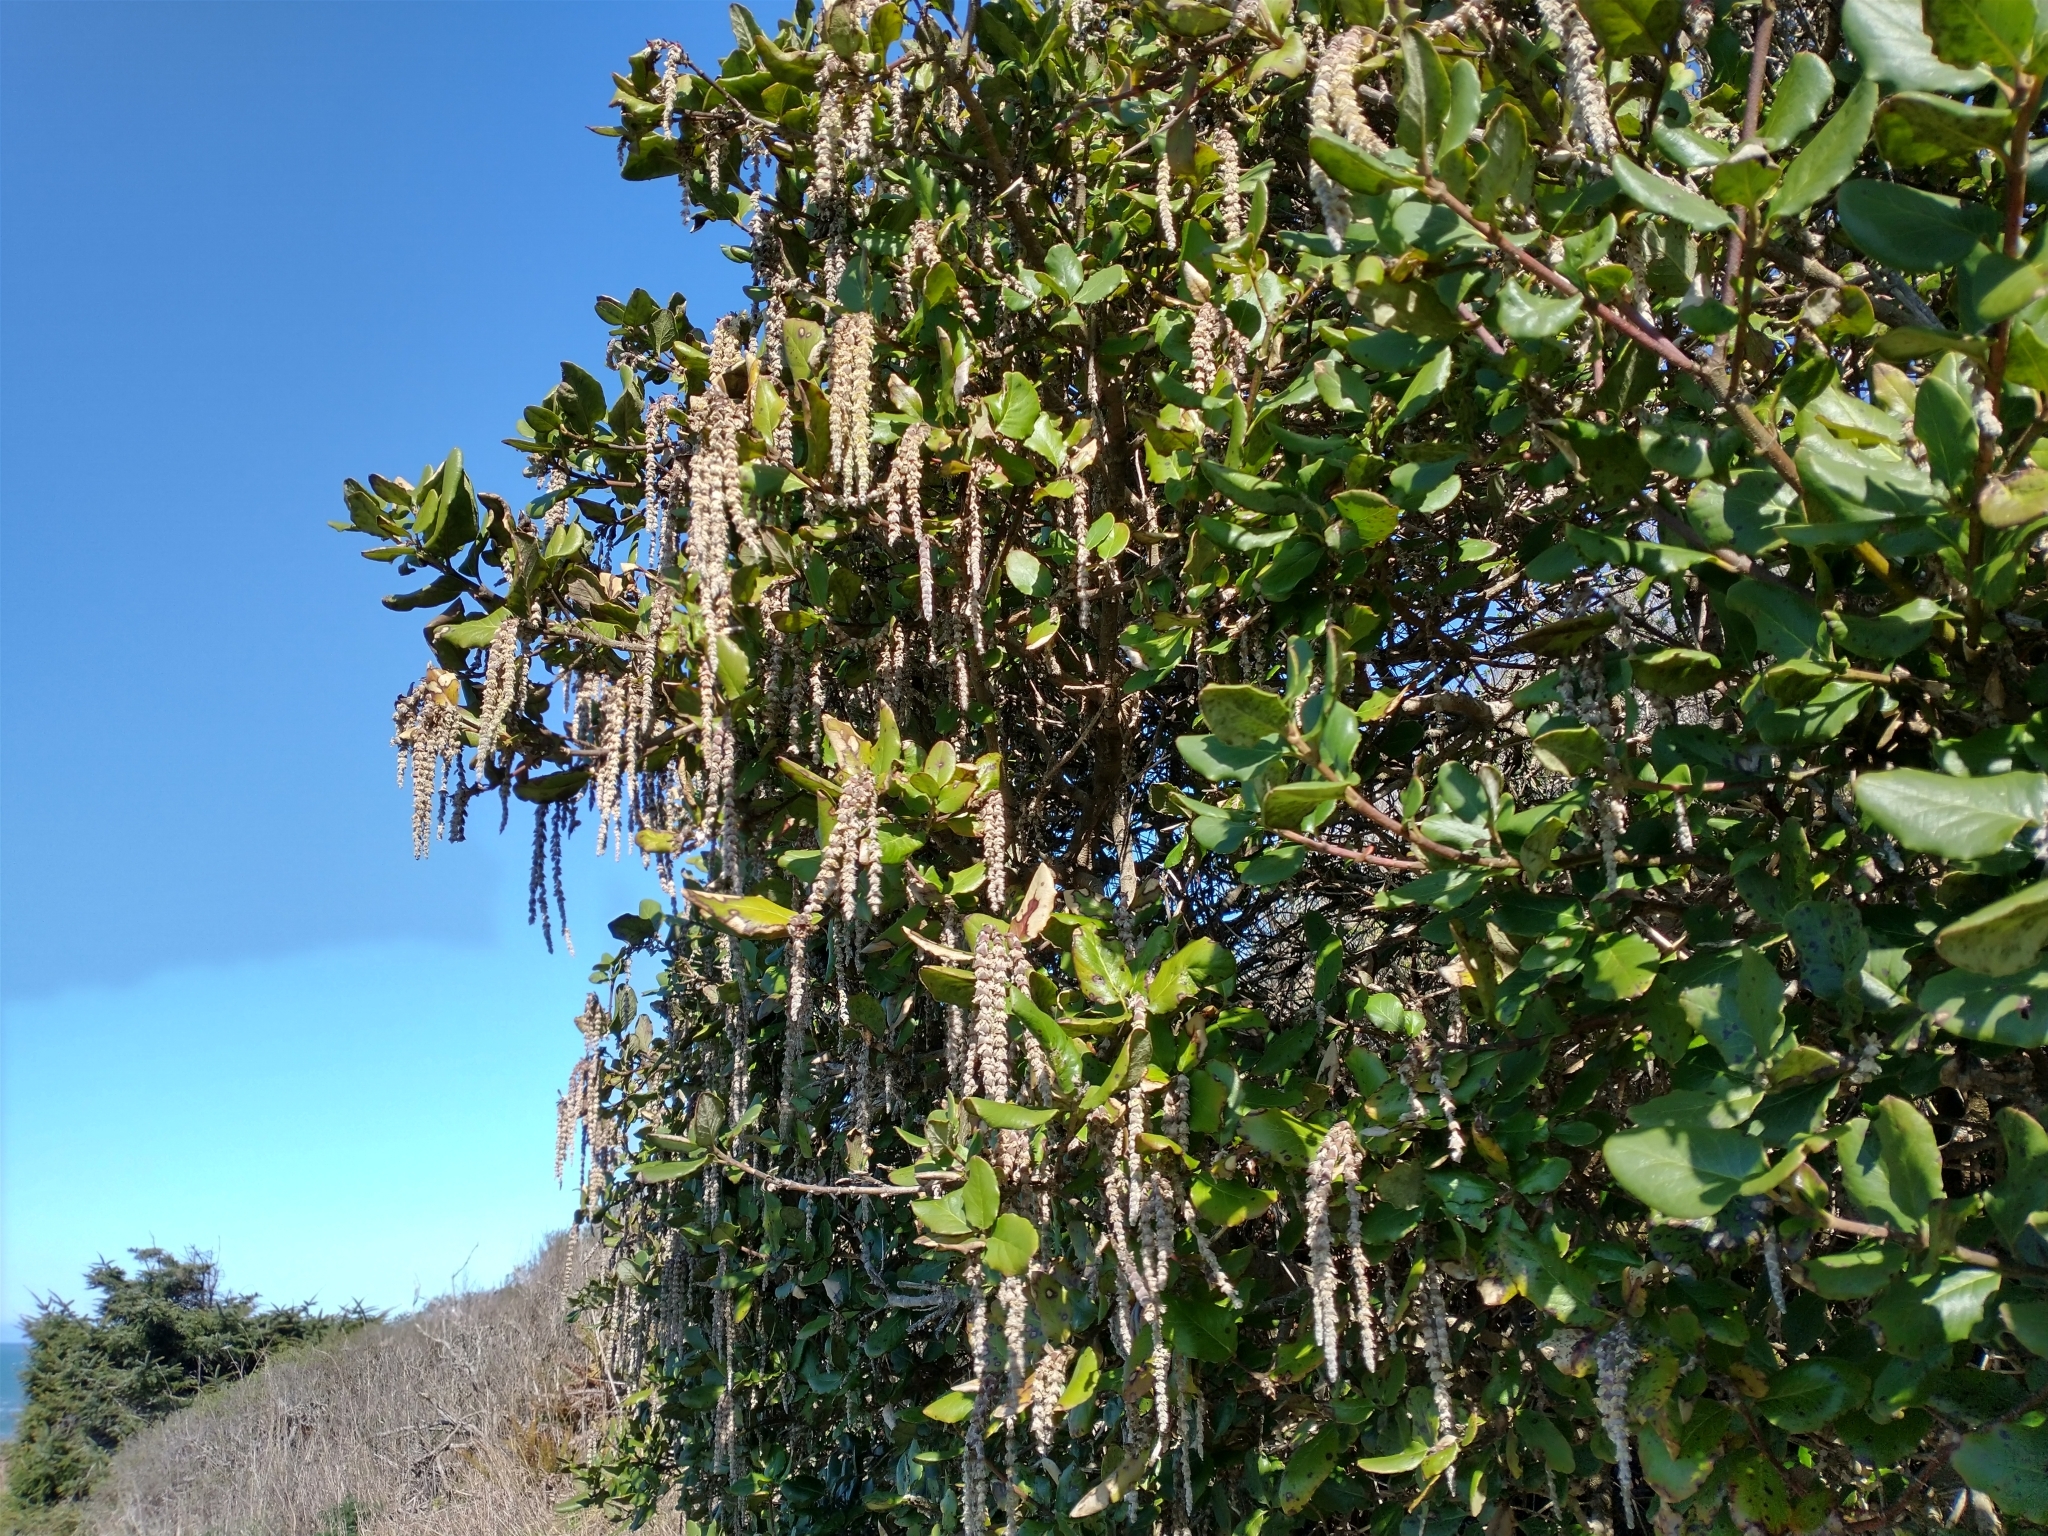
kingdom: Plantae
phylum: Tracheophyta
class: Magnoliopsida
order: Garryales
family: Garryaceae
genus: Garrya
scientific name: Garrya elliptica
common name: Silk-tassel
